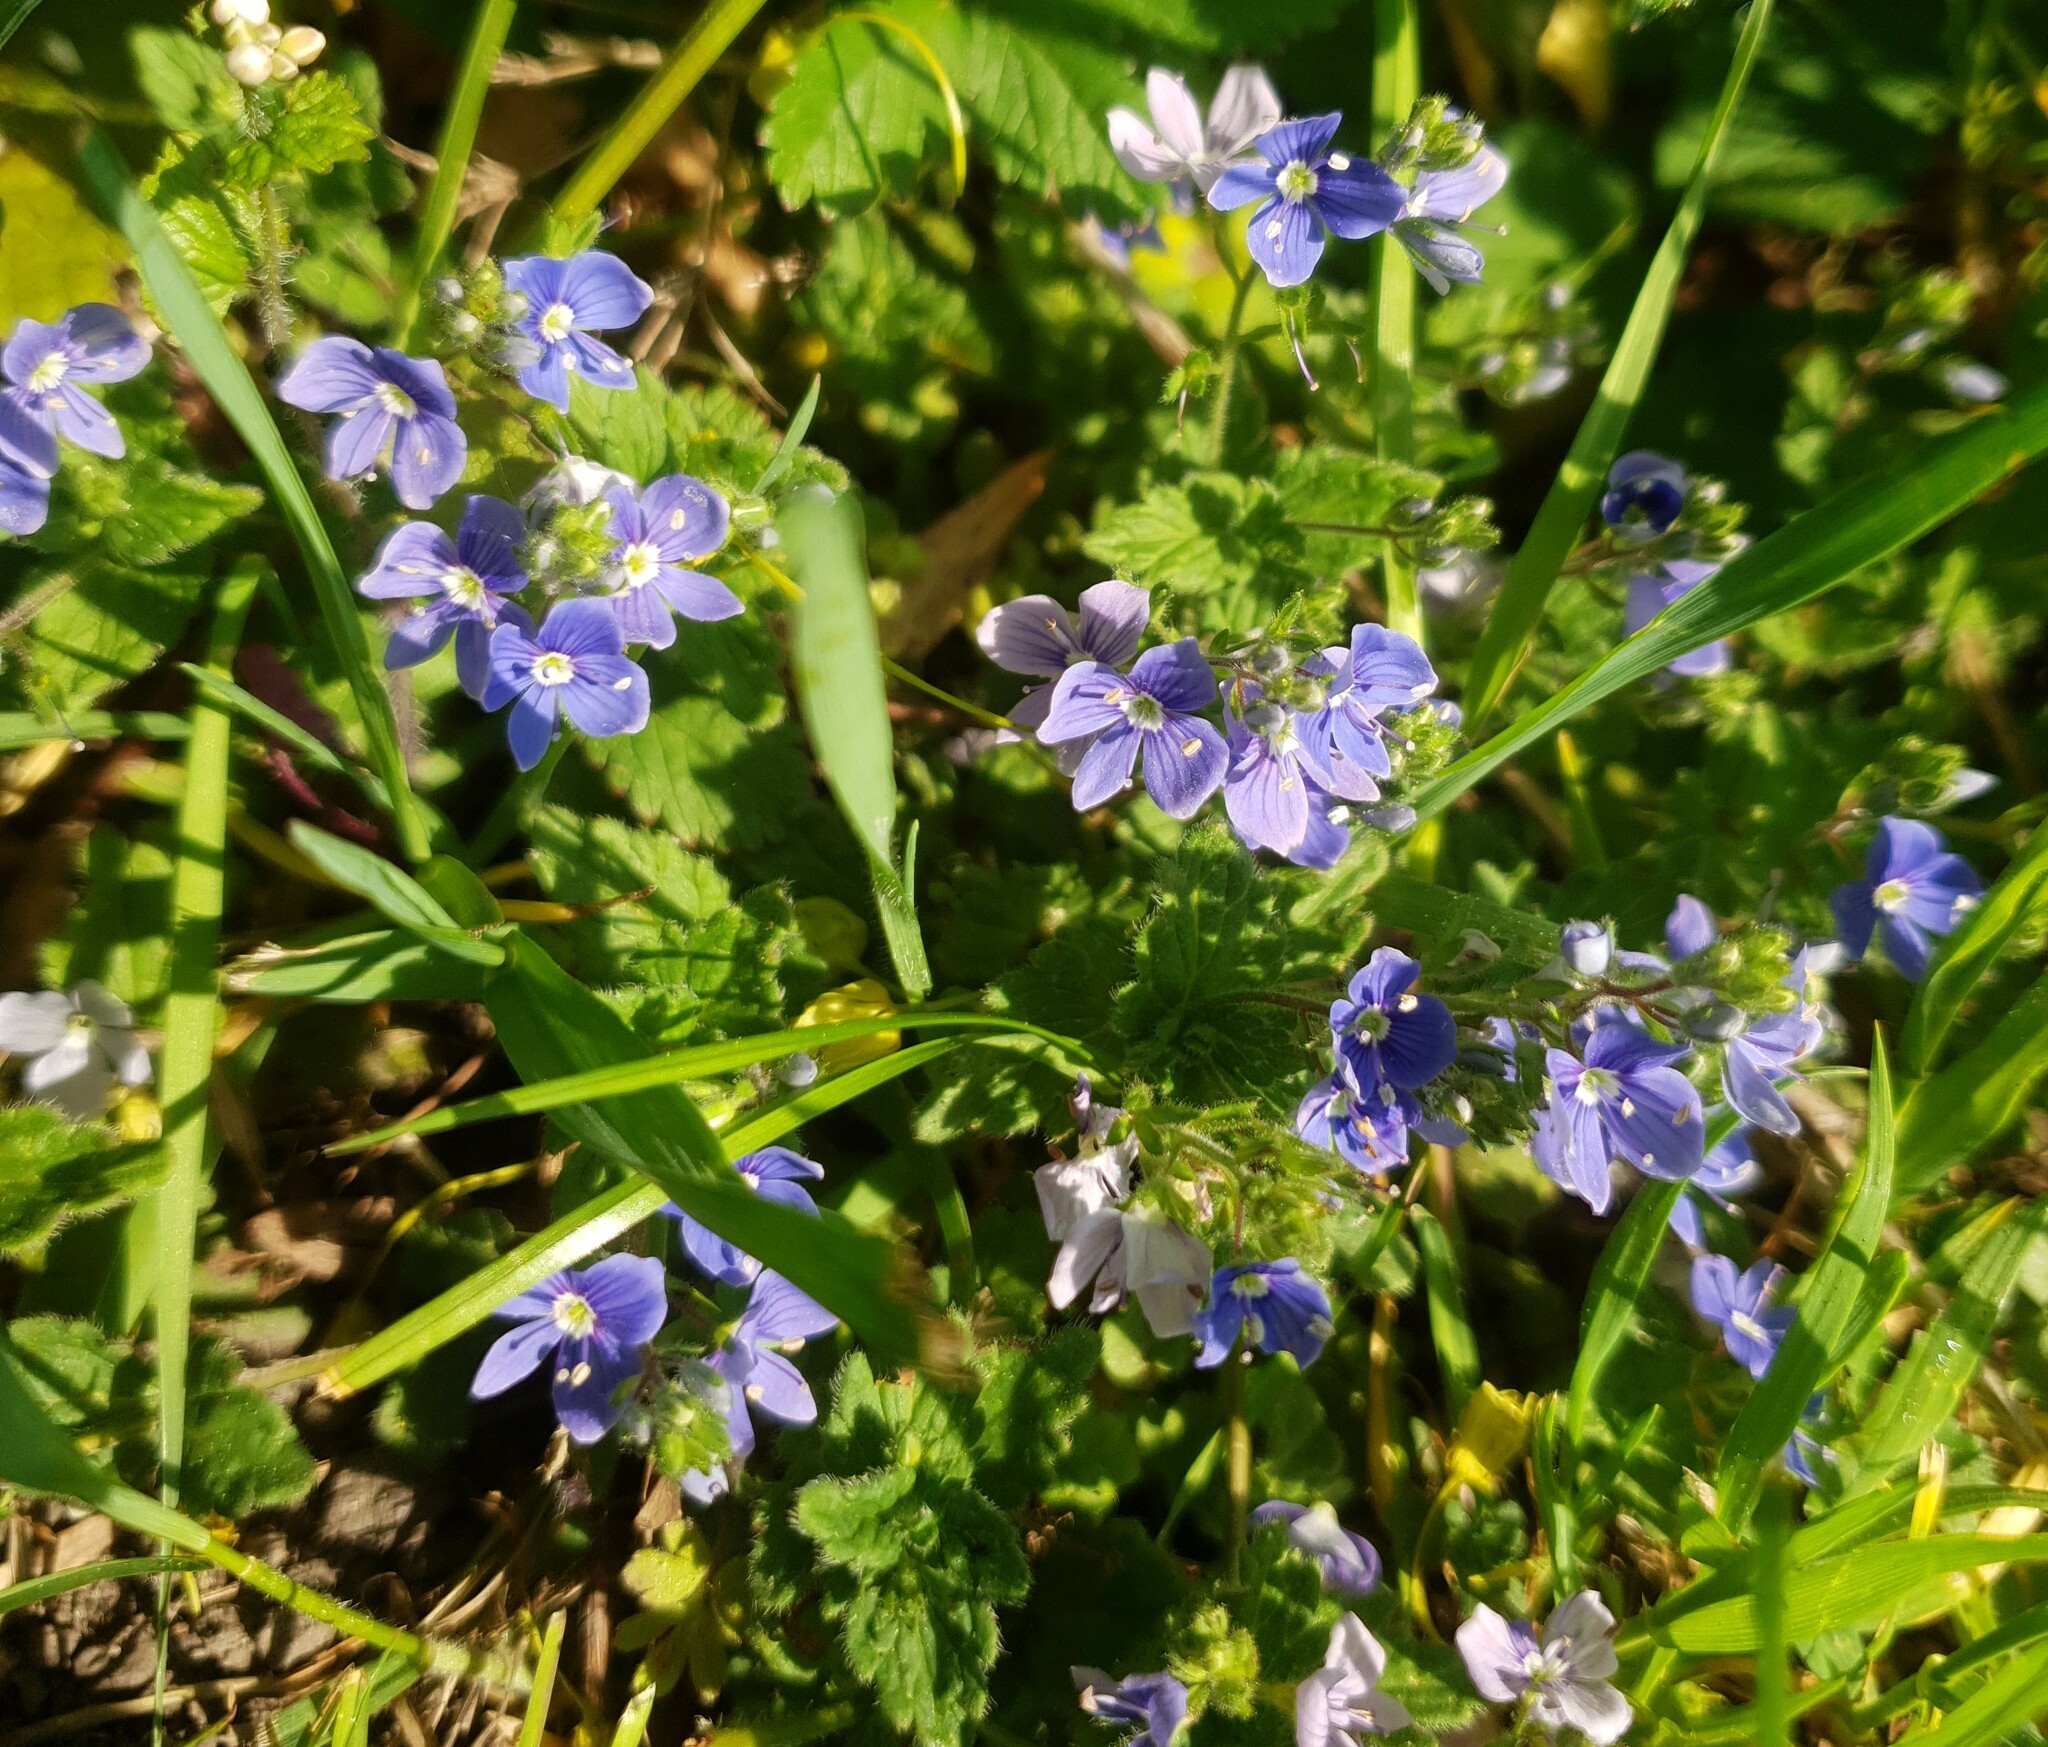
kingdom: Plantae
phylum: Tracheophyta
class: Magnoliopsida
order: Lamiales
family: Plantaginaceae
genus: Veronica
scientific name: Veronica chamaedrys
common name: Germander speedwell
